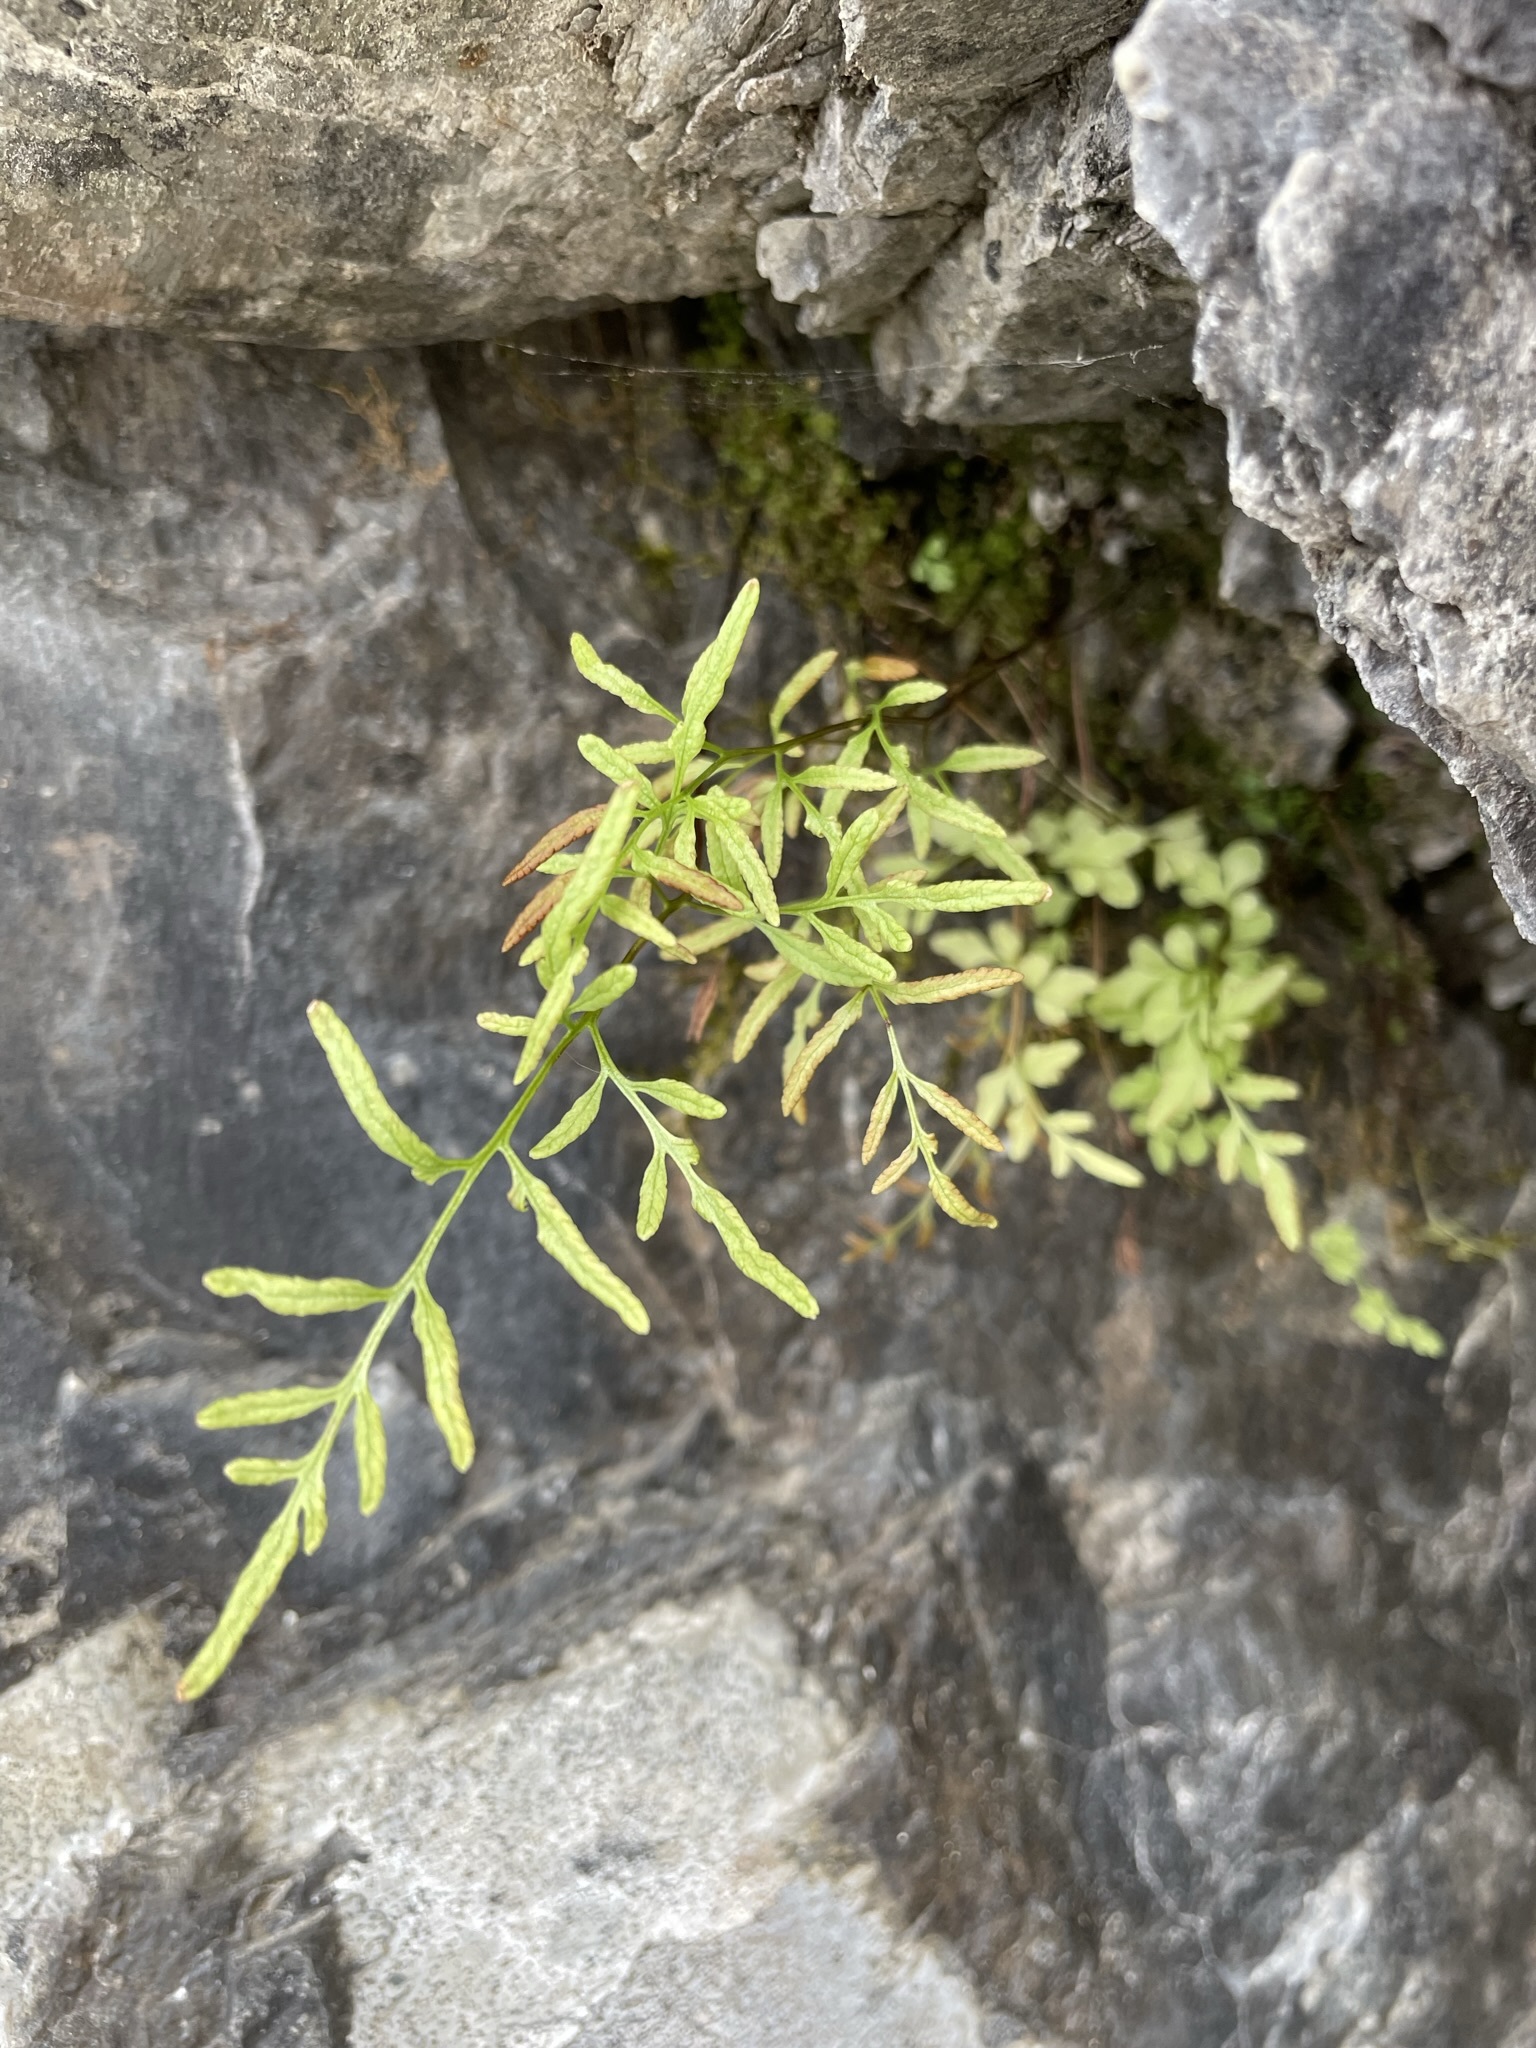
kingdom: Plantae
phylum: Tracheophyta
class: Polypodiopsida
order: Polypodiales
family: Pteridaceae
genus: Cryptogramma
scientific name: Cryptogramma stelleri
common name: Cliff-brake
